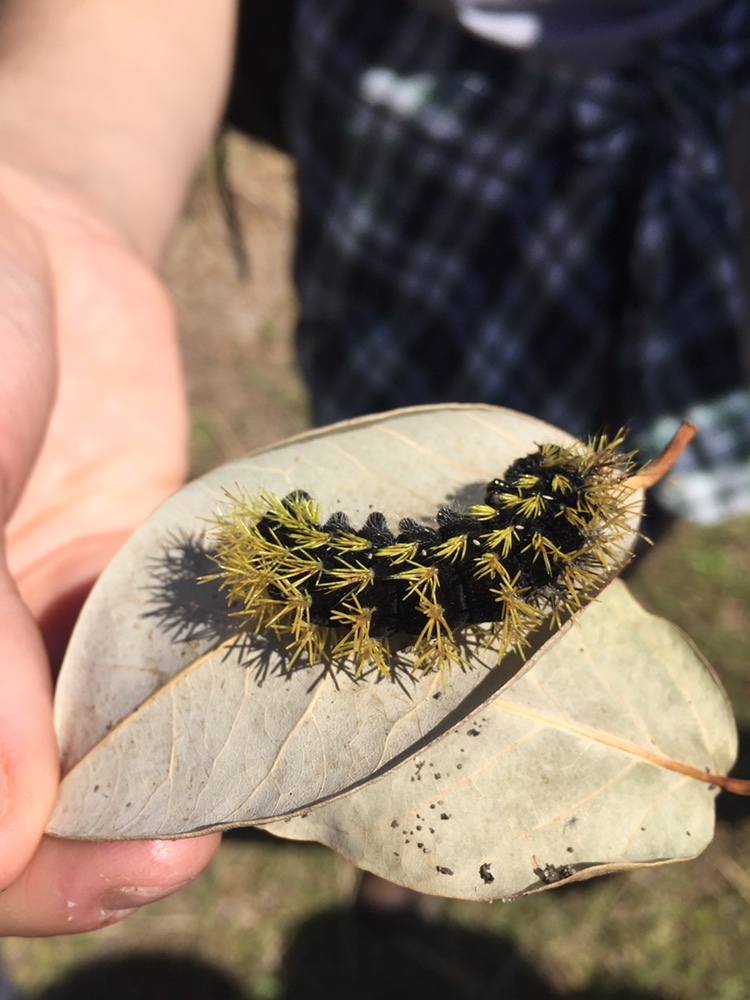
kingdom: Animalia
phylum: Arthropoda
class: Insecta
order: Lepidoptera
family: Saturniidae
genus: Leucanella
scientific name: Leucanella viridescens
